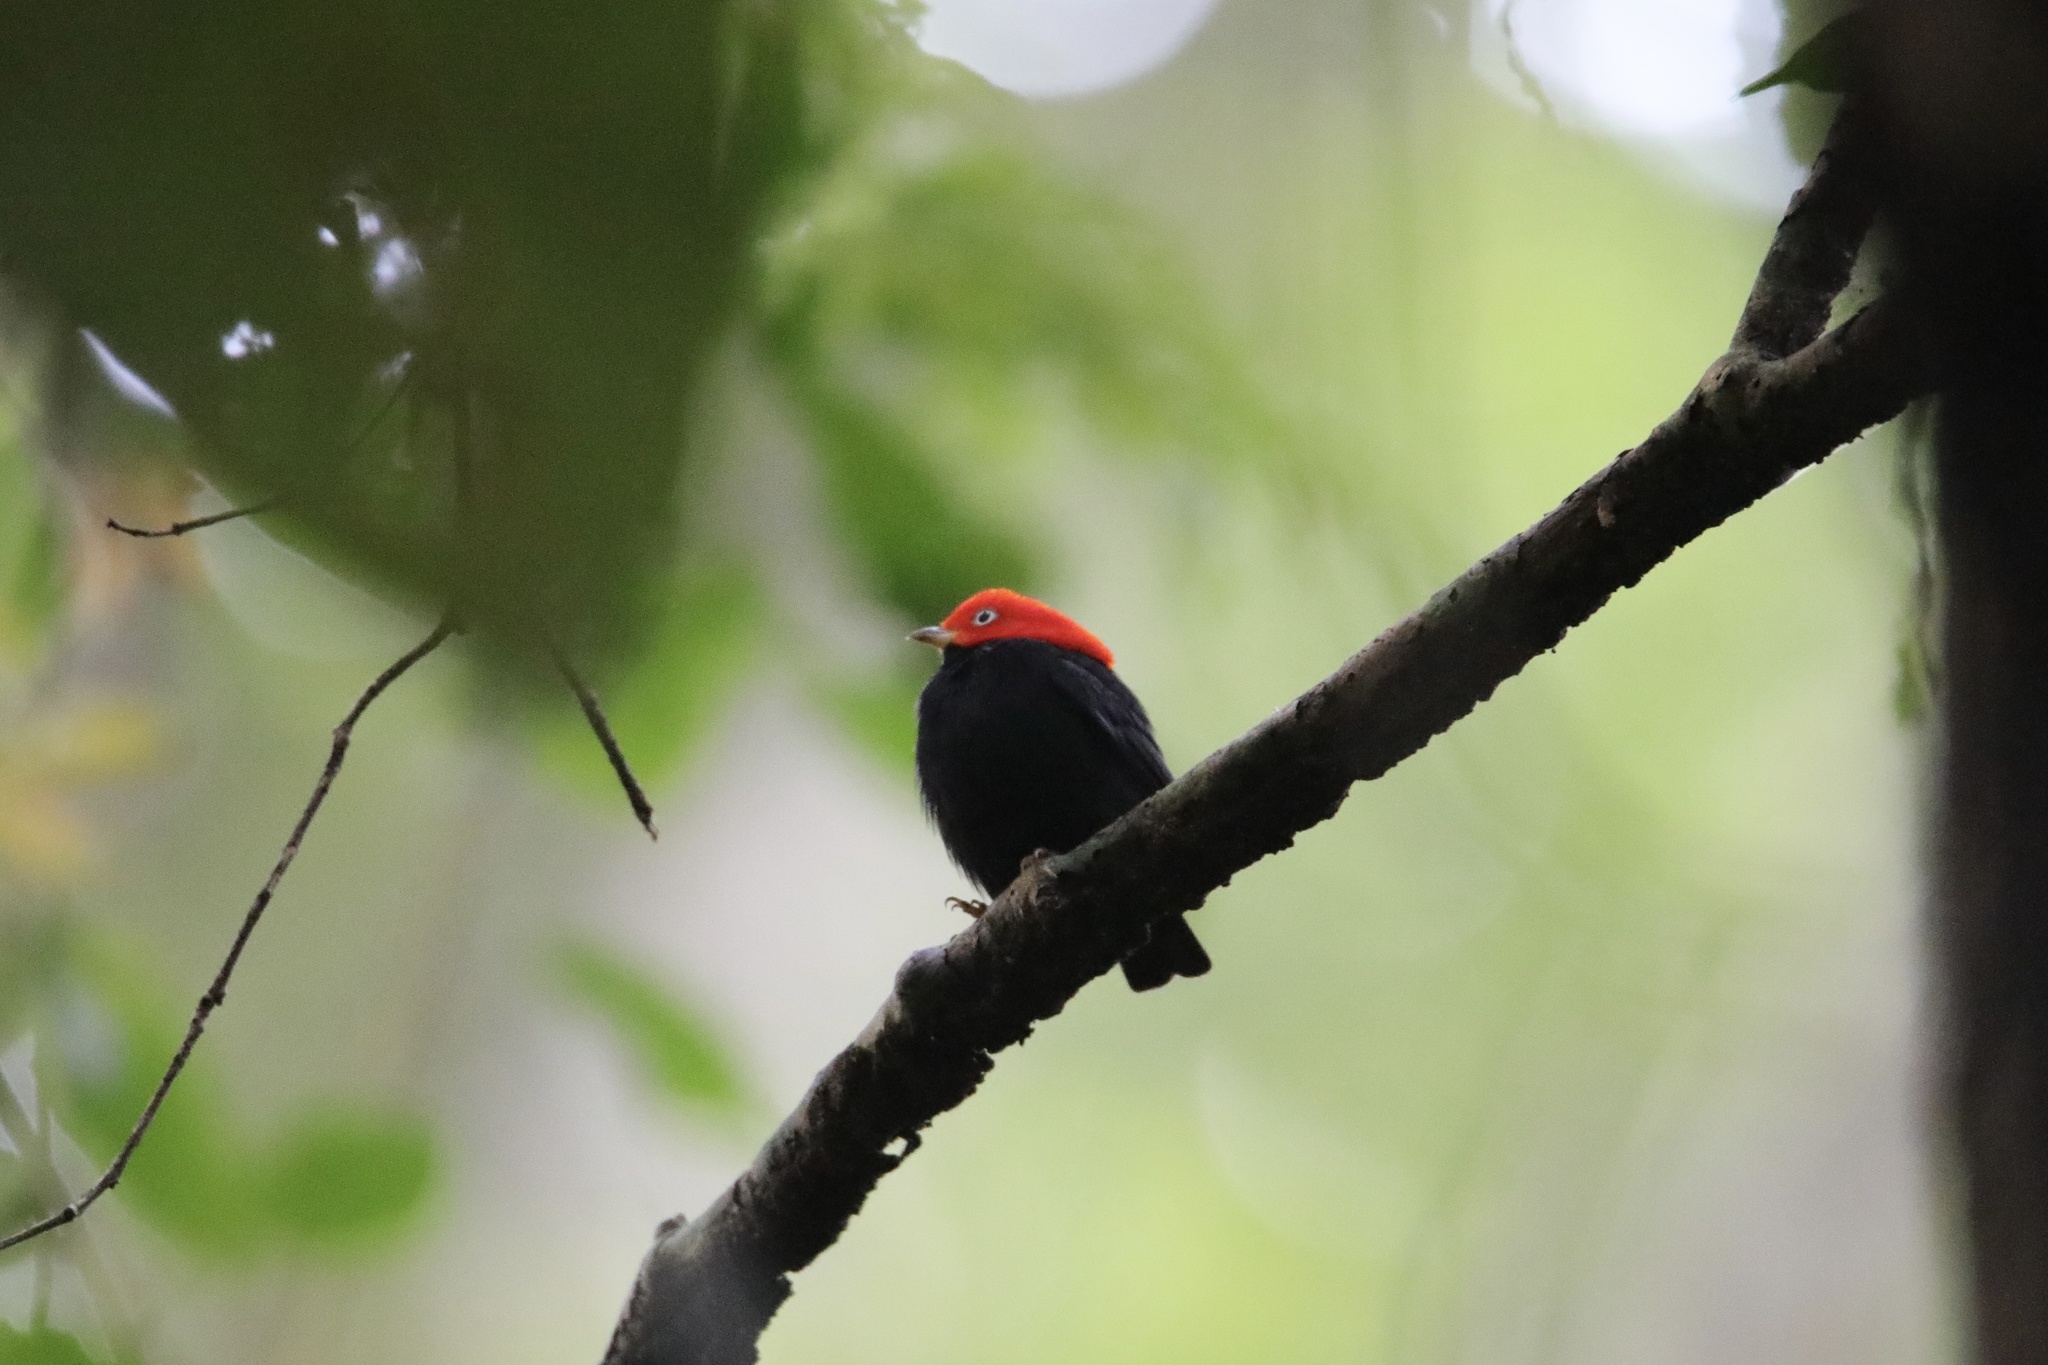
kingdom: Animalia
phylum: Chordata
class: Aves
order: Passeriformes
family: Pipridae
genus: Pipra
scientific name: Pipra mentalis
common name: Red-capped manakin
